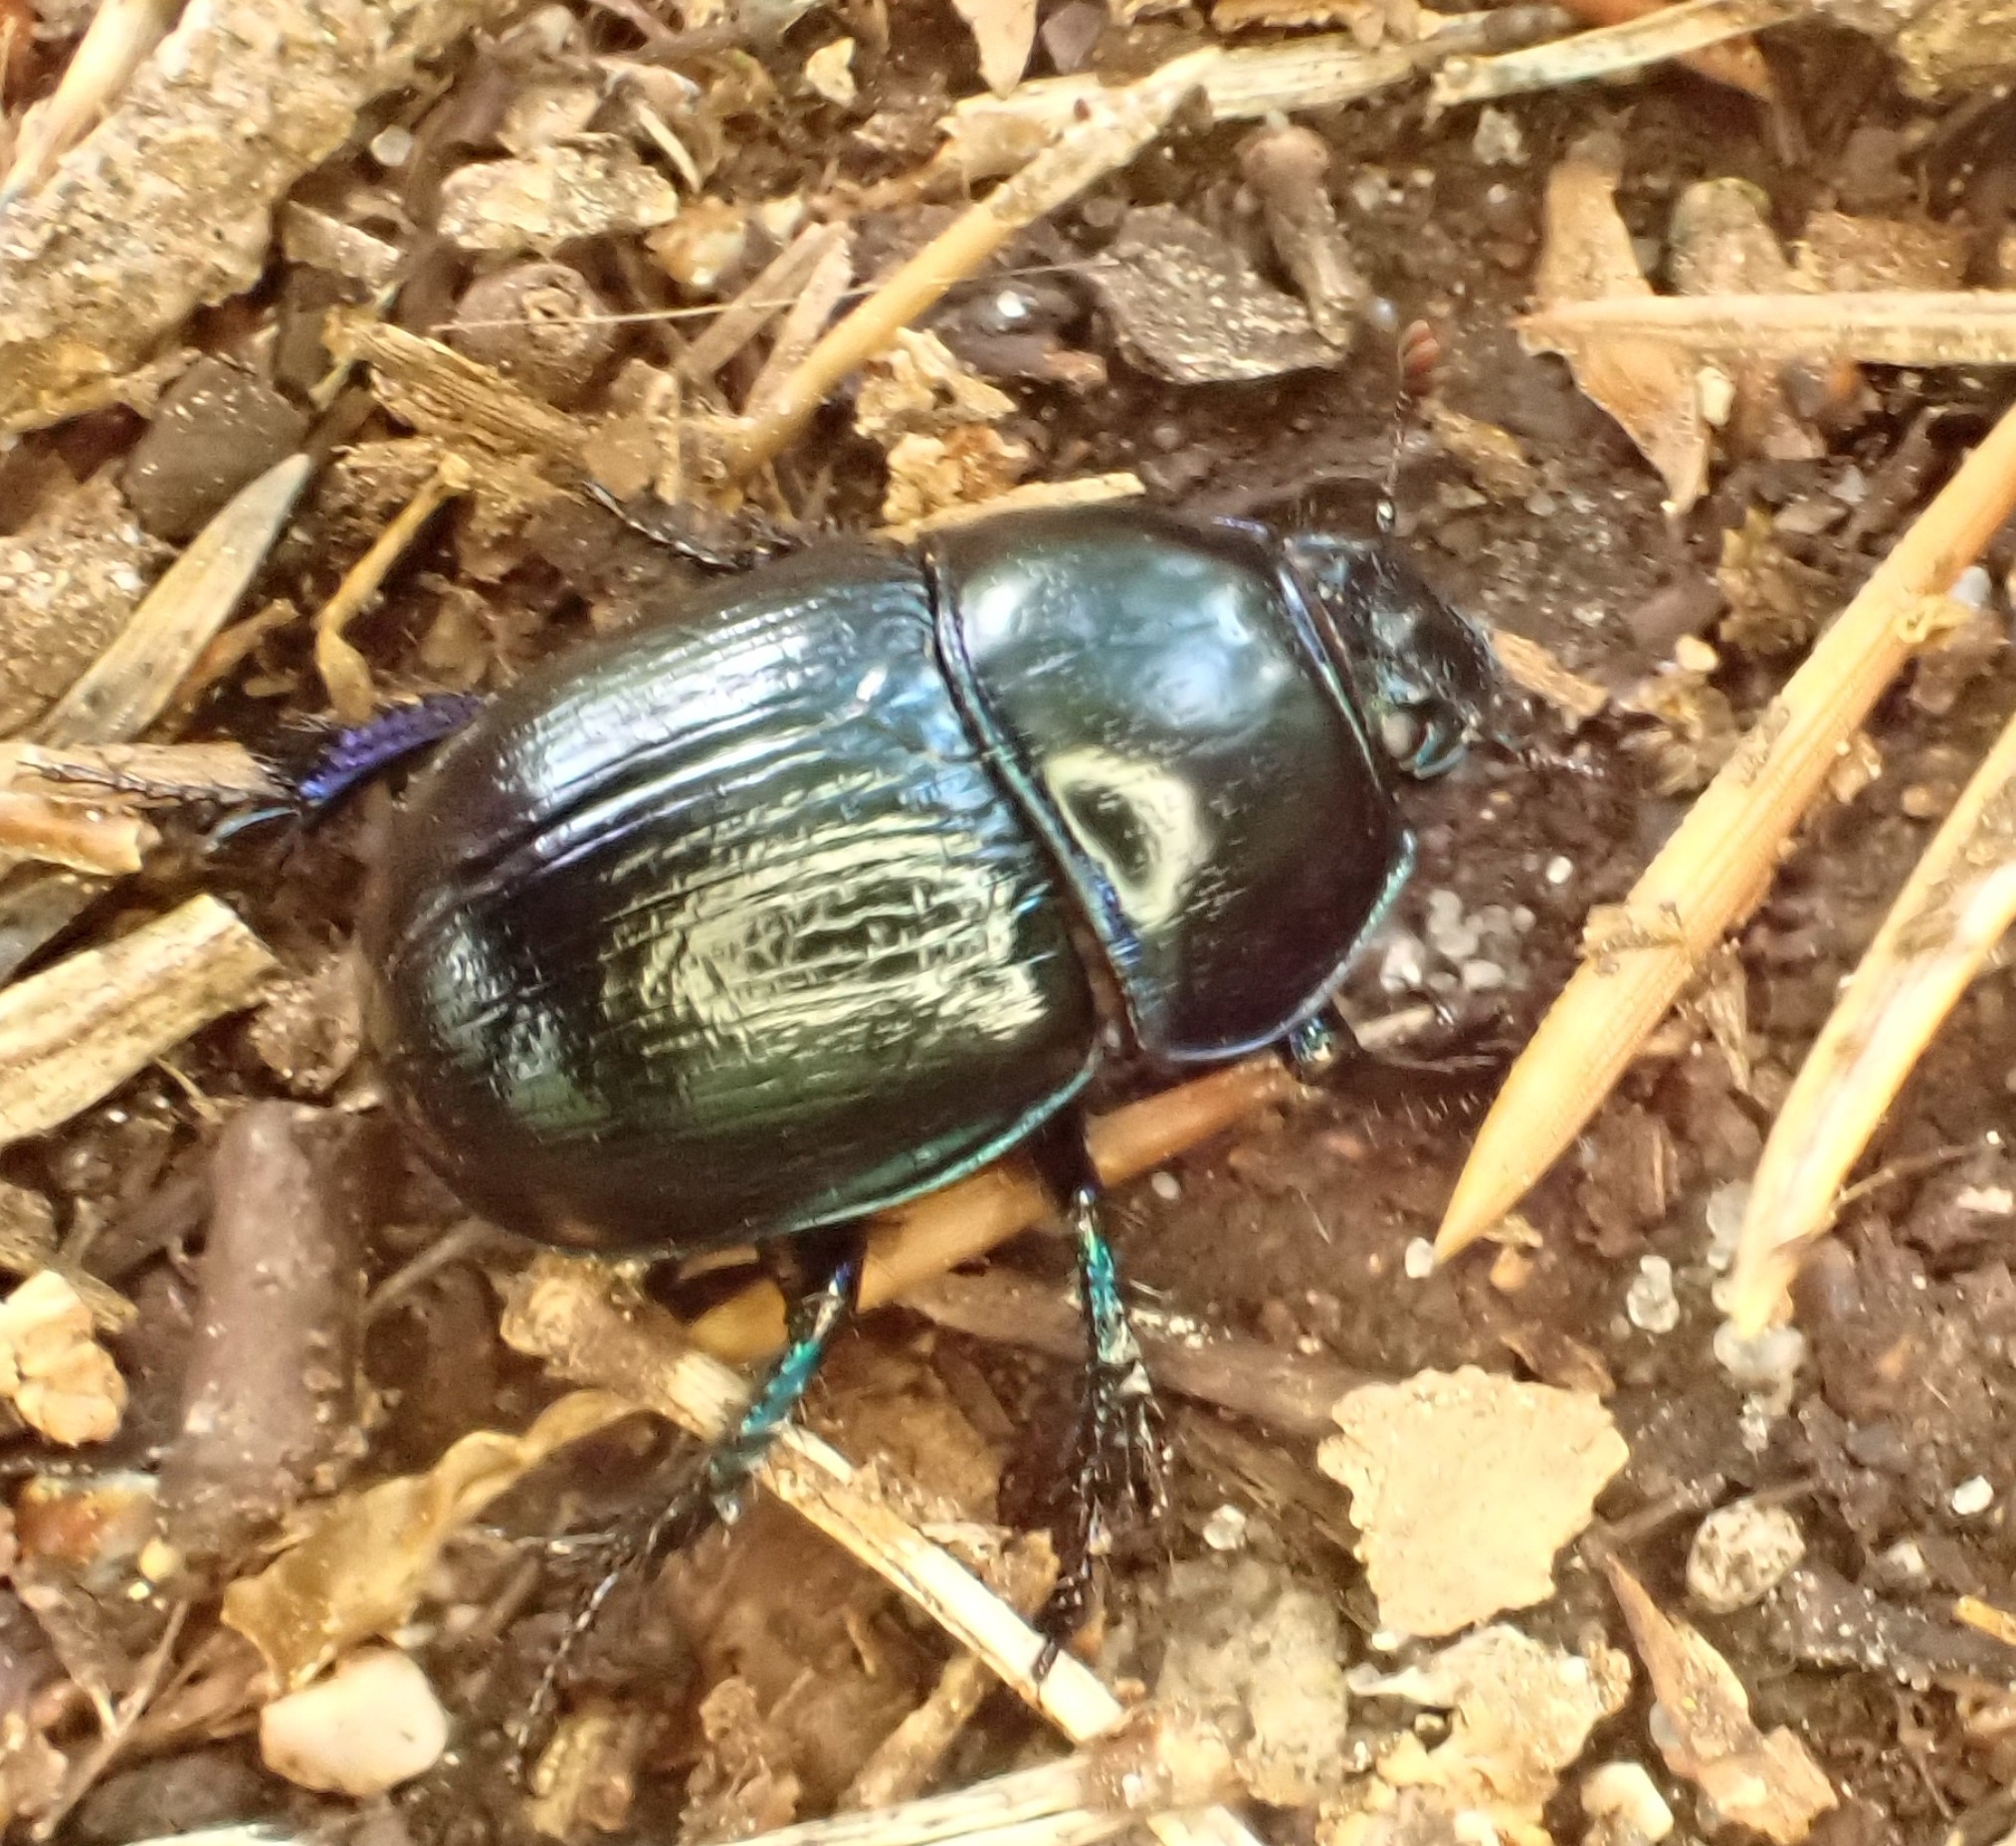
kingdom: Animalia
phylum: Arthropoda
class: Insecta
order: Coleoptera
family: Geotrupidae
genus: Anoplotrupes
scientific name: Anoplotrupes stercorosus
